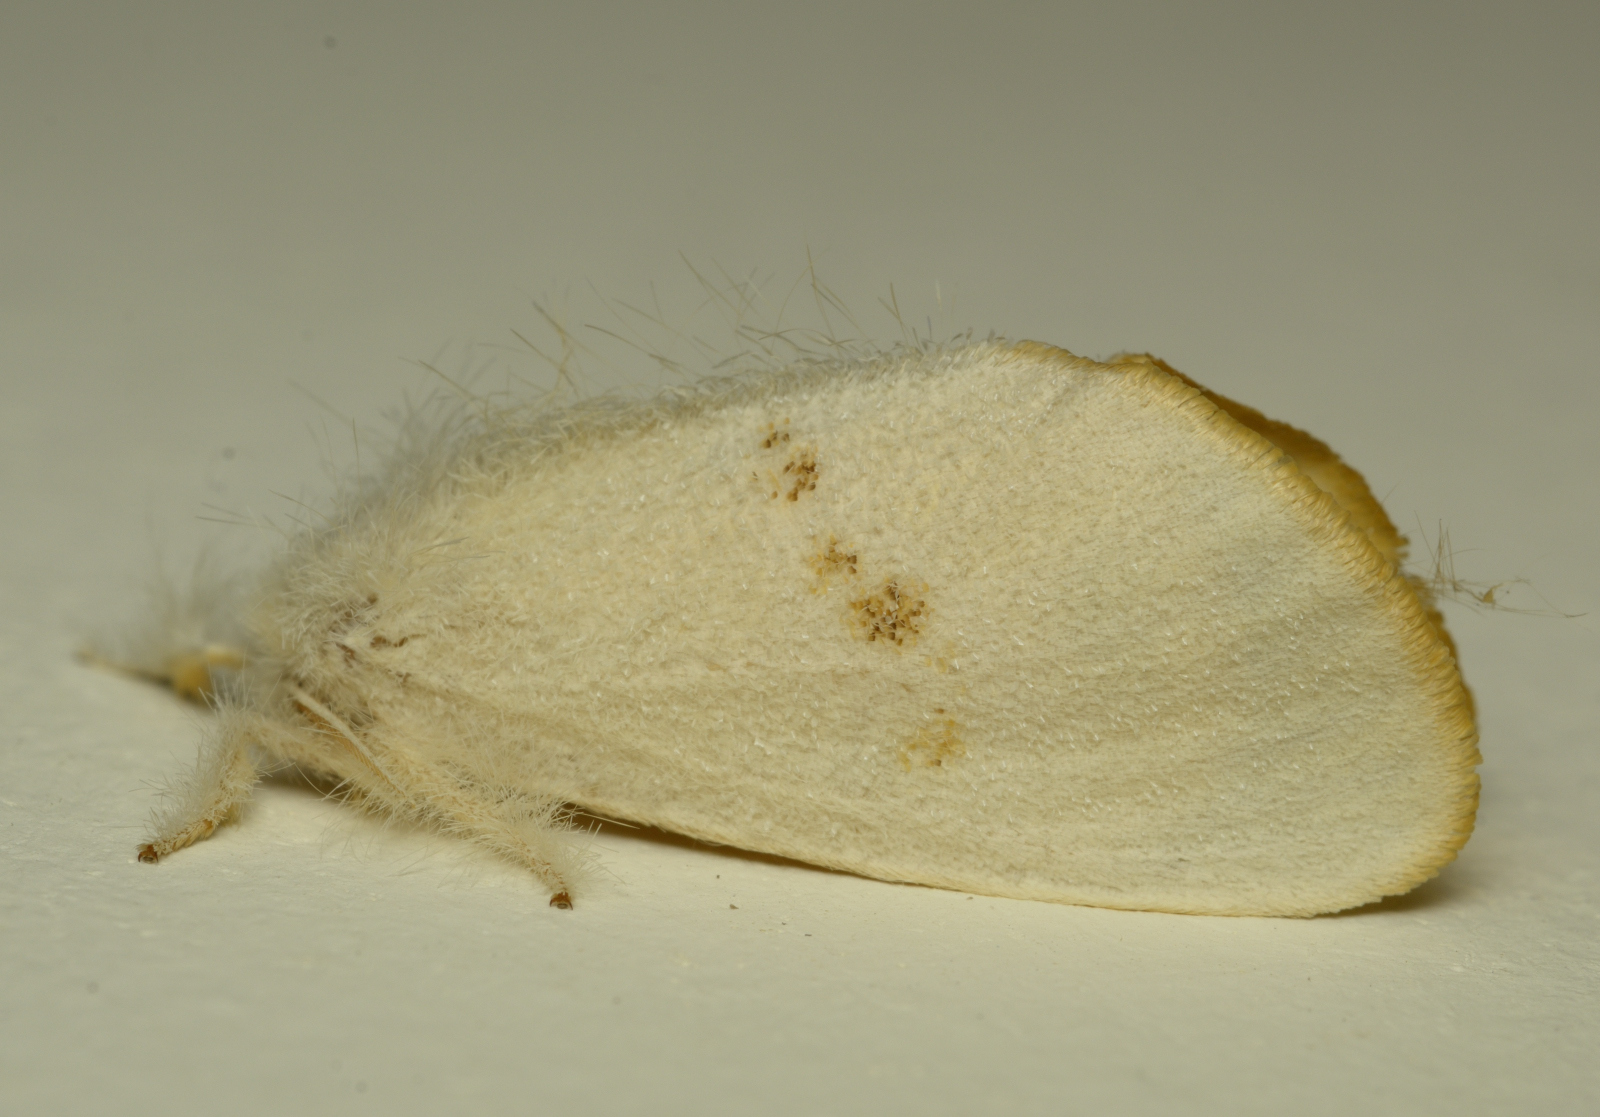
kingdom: Animalia
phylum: Arthropoda
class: Insecta
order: Lepidoptera
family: Erebidae
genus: Sphrageidus
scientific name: Sphrageidus similis
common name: Yellow-tail
